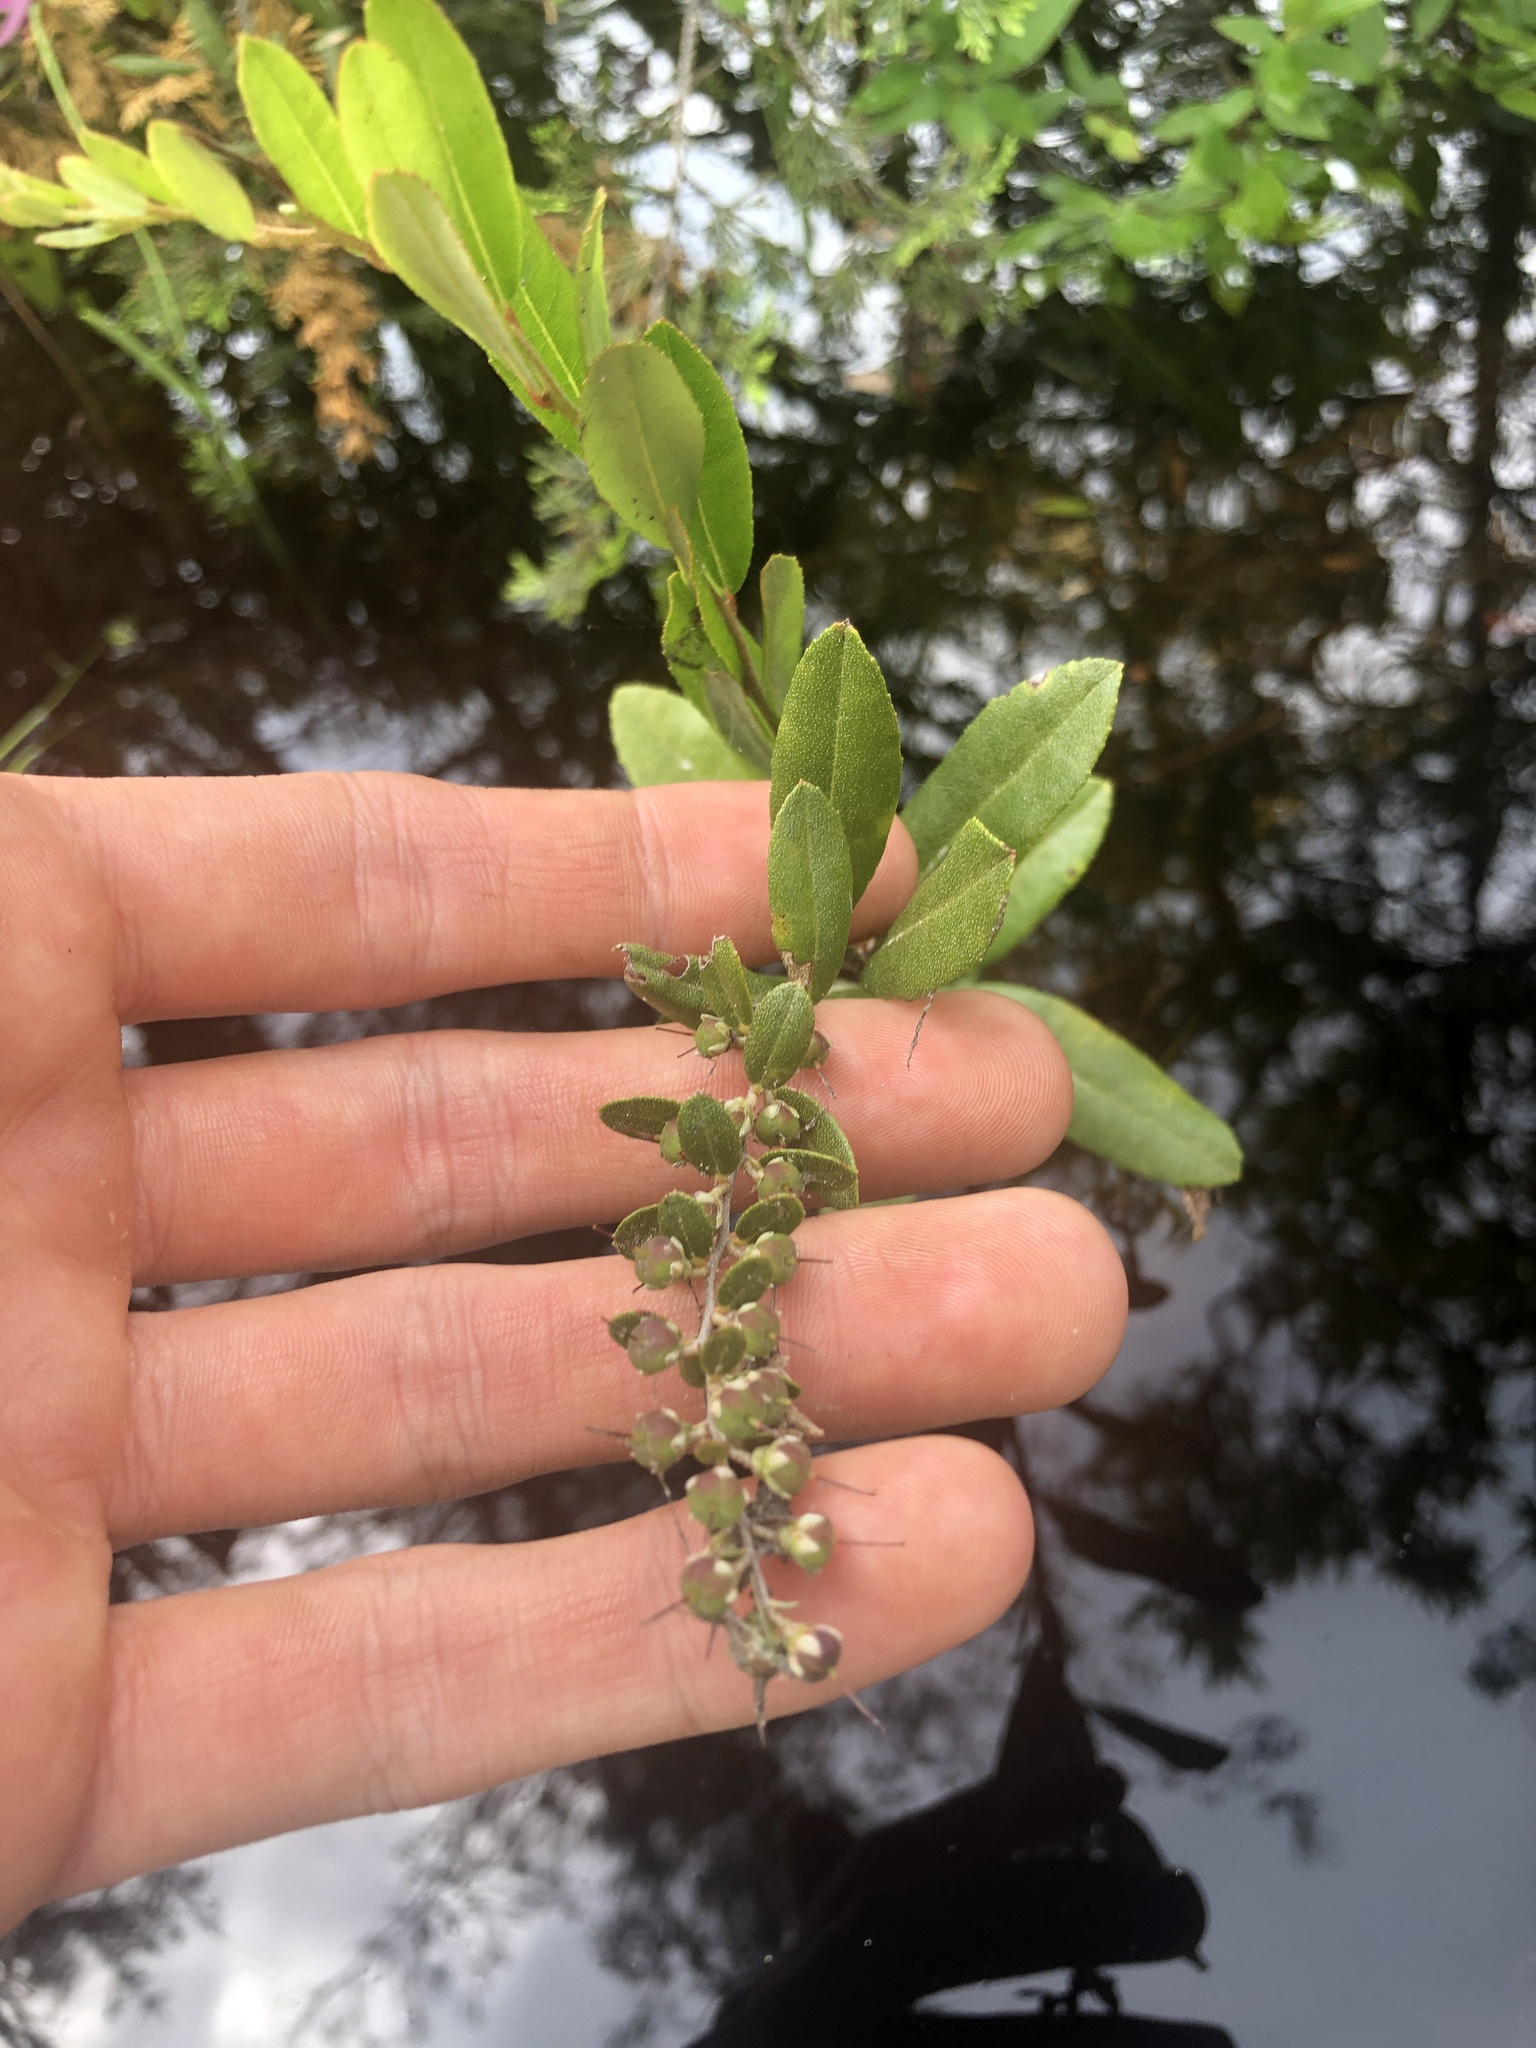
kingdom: Plantae
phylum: Tracheophyta
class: Magnoliopsida
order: Ericales
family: Ericaceae
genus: Chamaedaphne
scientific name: Chamaedaphne calyculata
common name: Leatherleaf
